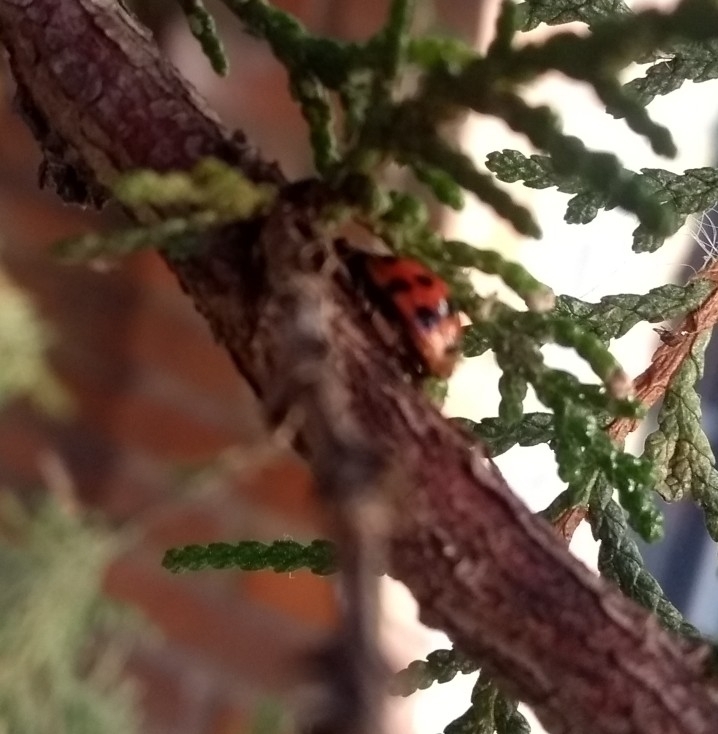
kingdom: Animalia
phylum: Arthropoda
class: Insecta
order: Coleoptera
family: Coccinellidae
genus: Harmonia
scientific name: Harmonia axyridis
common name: Harlequin ladybird
